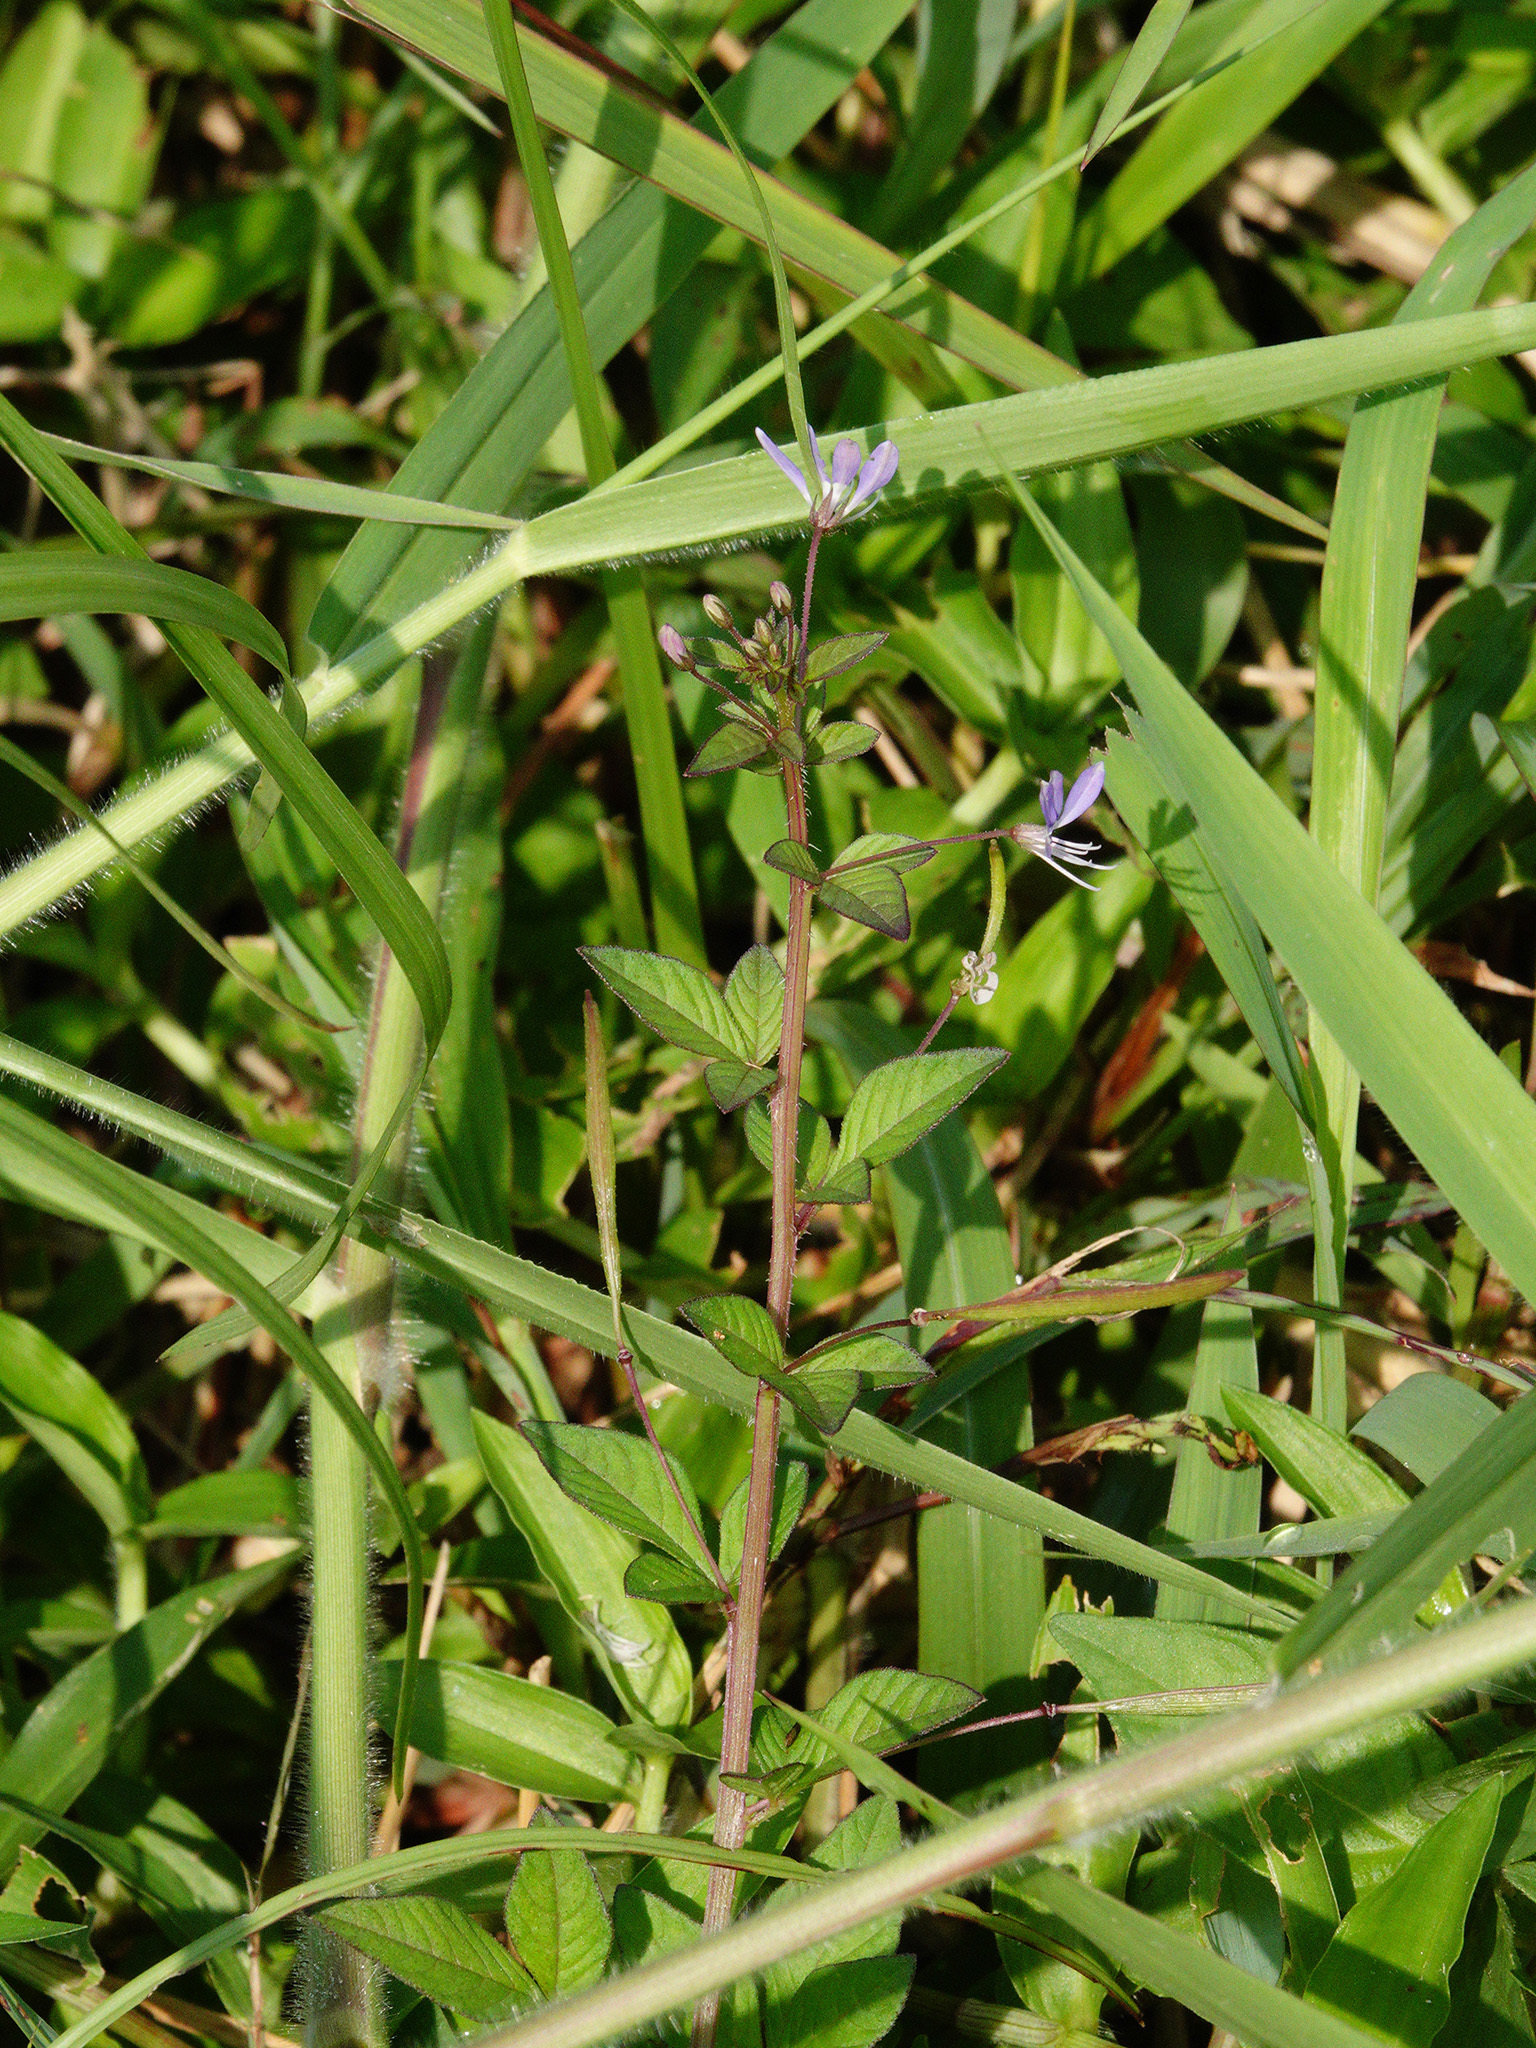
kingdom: Plantae
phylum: Tracheophyta
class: Magnoliopsida
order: Brassicales
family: Cleomaceae
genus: Sieruela
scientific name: Sieruela rutidosperma
